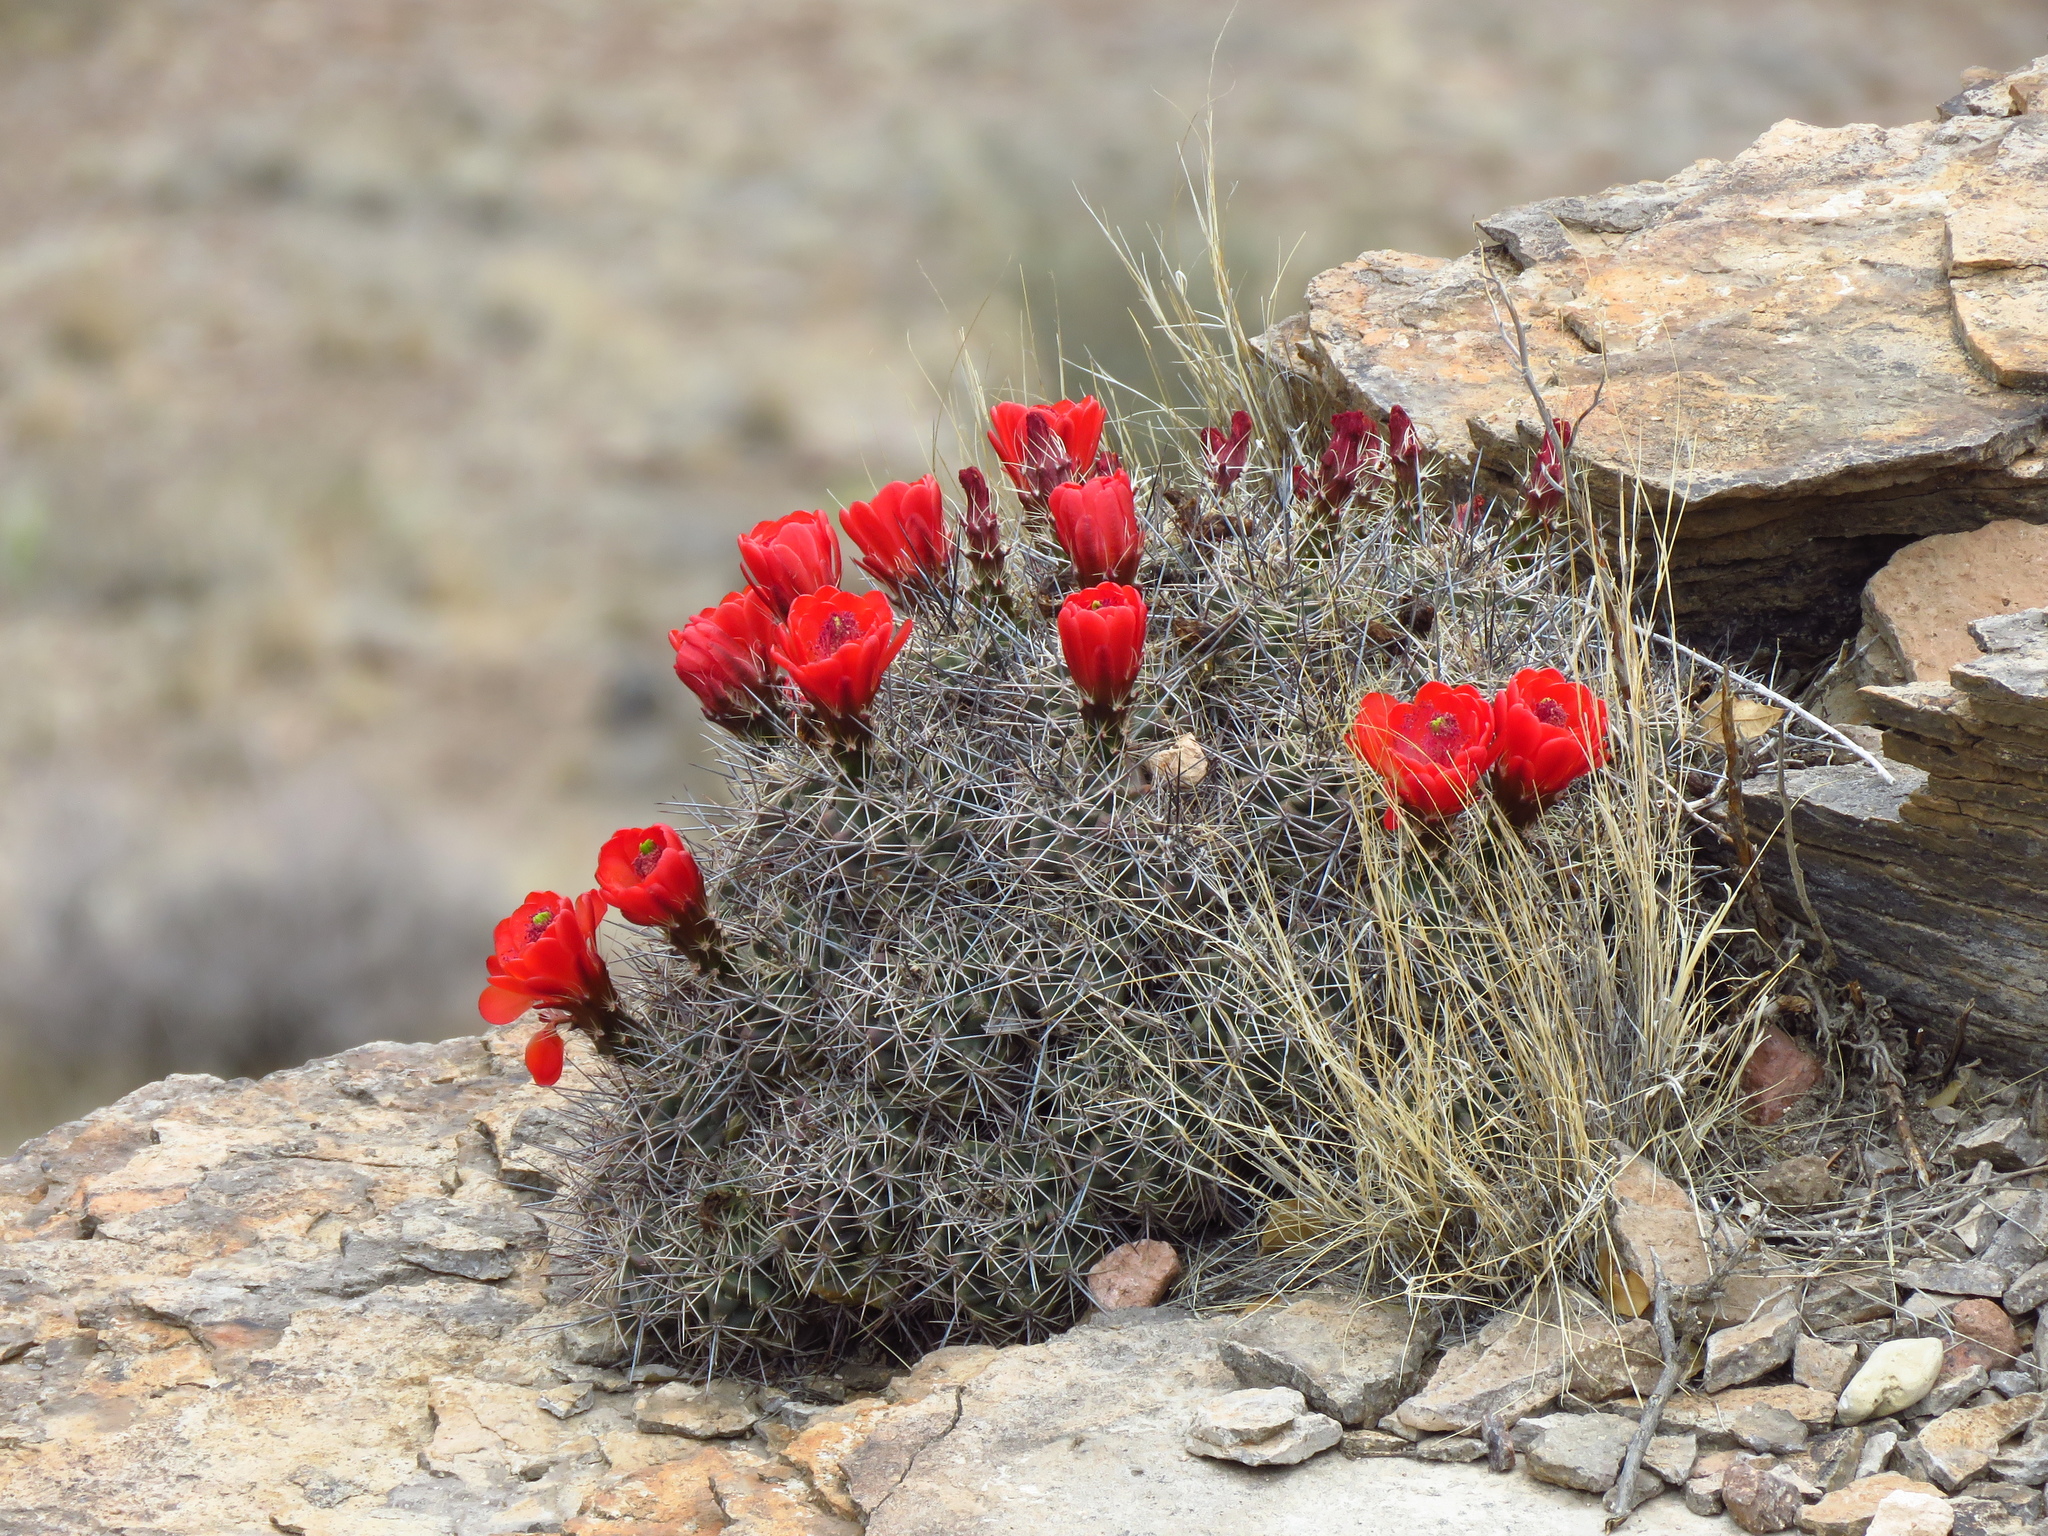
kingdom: Plantae
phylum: Tracheophyta
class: Magnoliopsida
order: Caryophyllales
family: Cactaceae
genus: Echinocereus
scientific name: Echinocereus coccineus
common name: Scarlet hedgehog cactus
